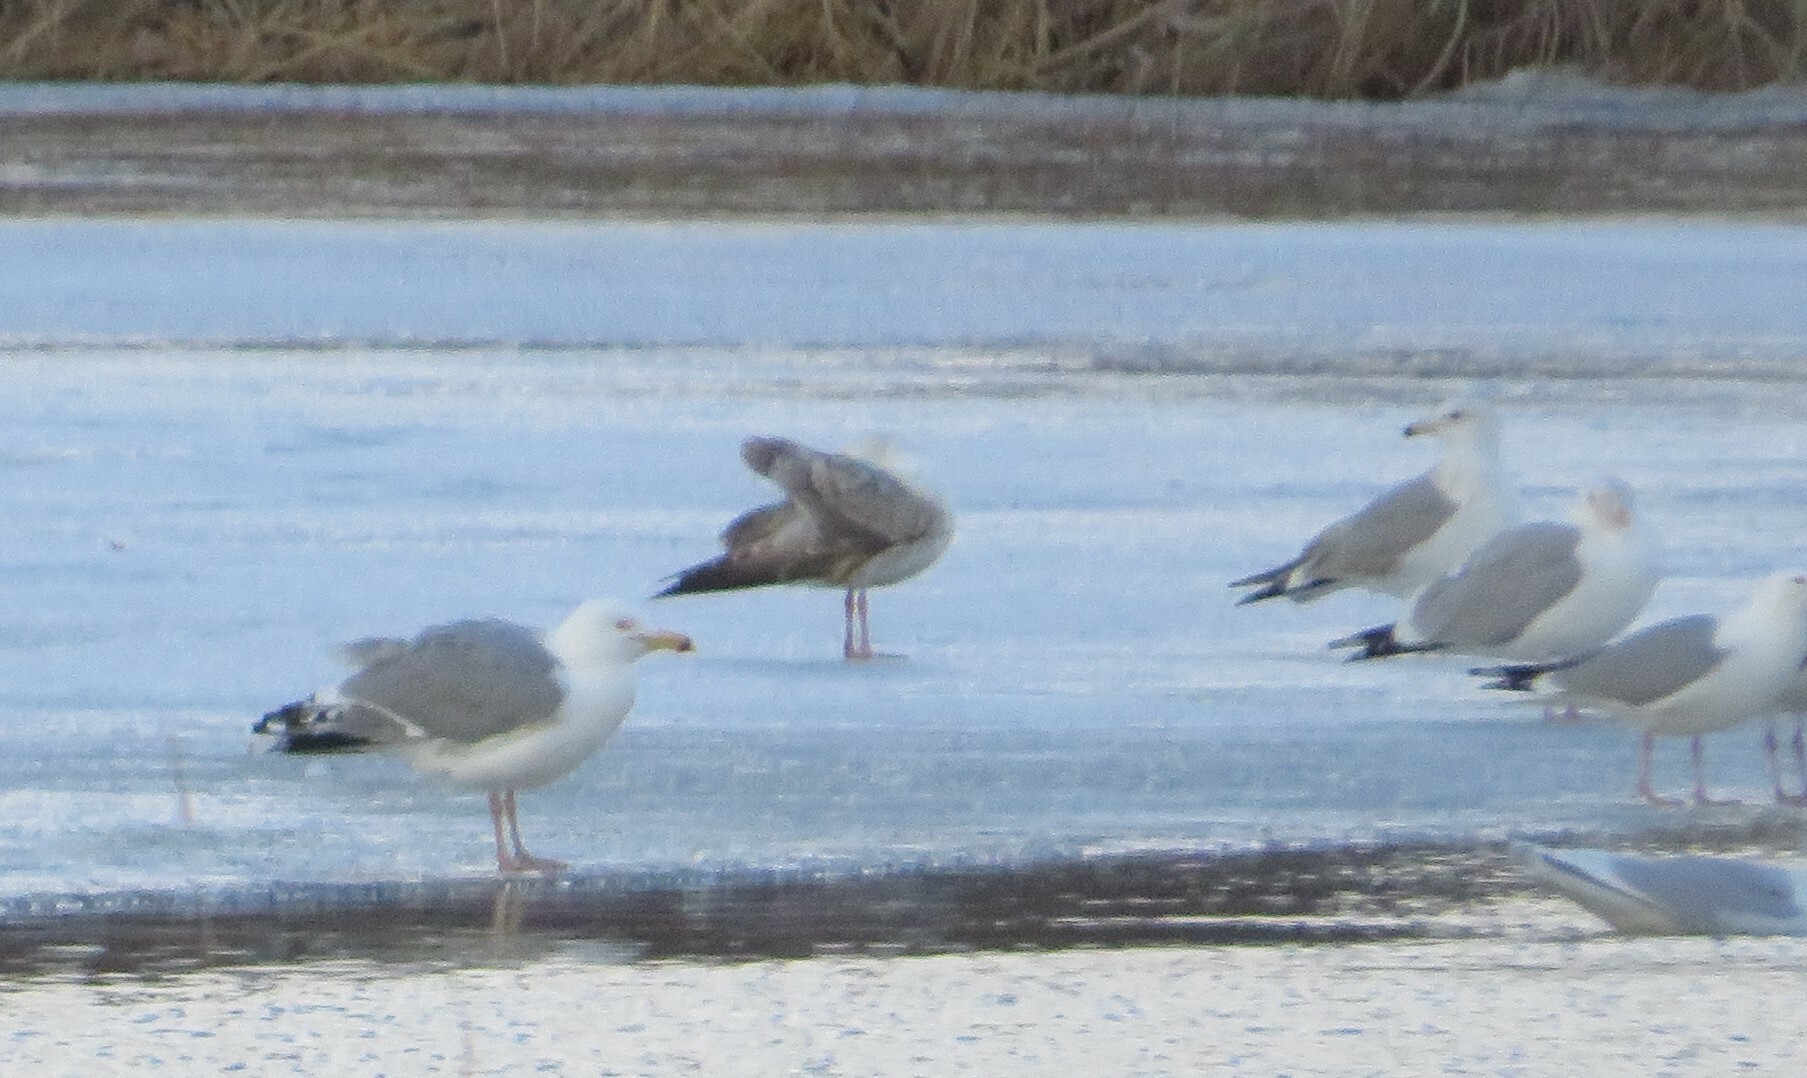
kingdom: Animalia
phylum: Chordata
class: Aves
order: Charadriiformes
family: Laridae
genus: Larus
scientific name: Larus argentatus
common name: Herring gull
